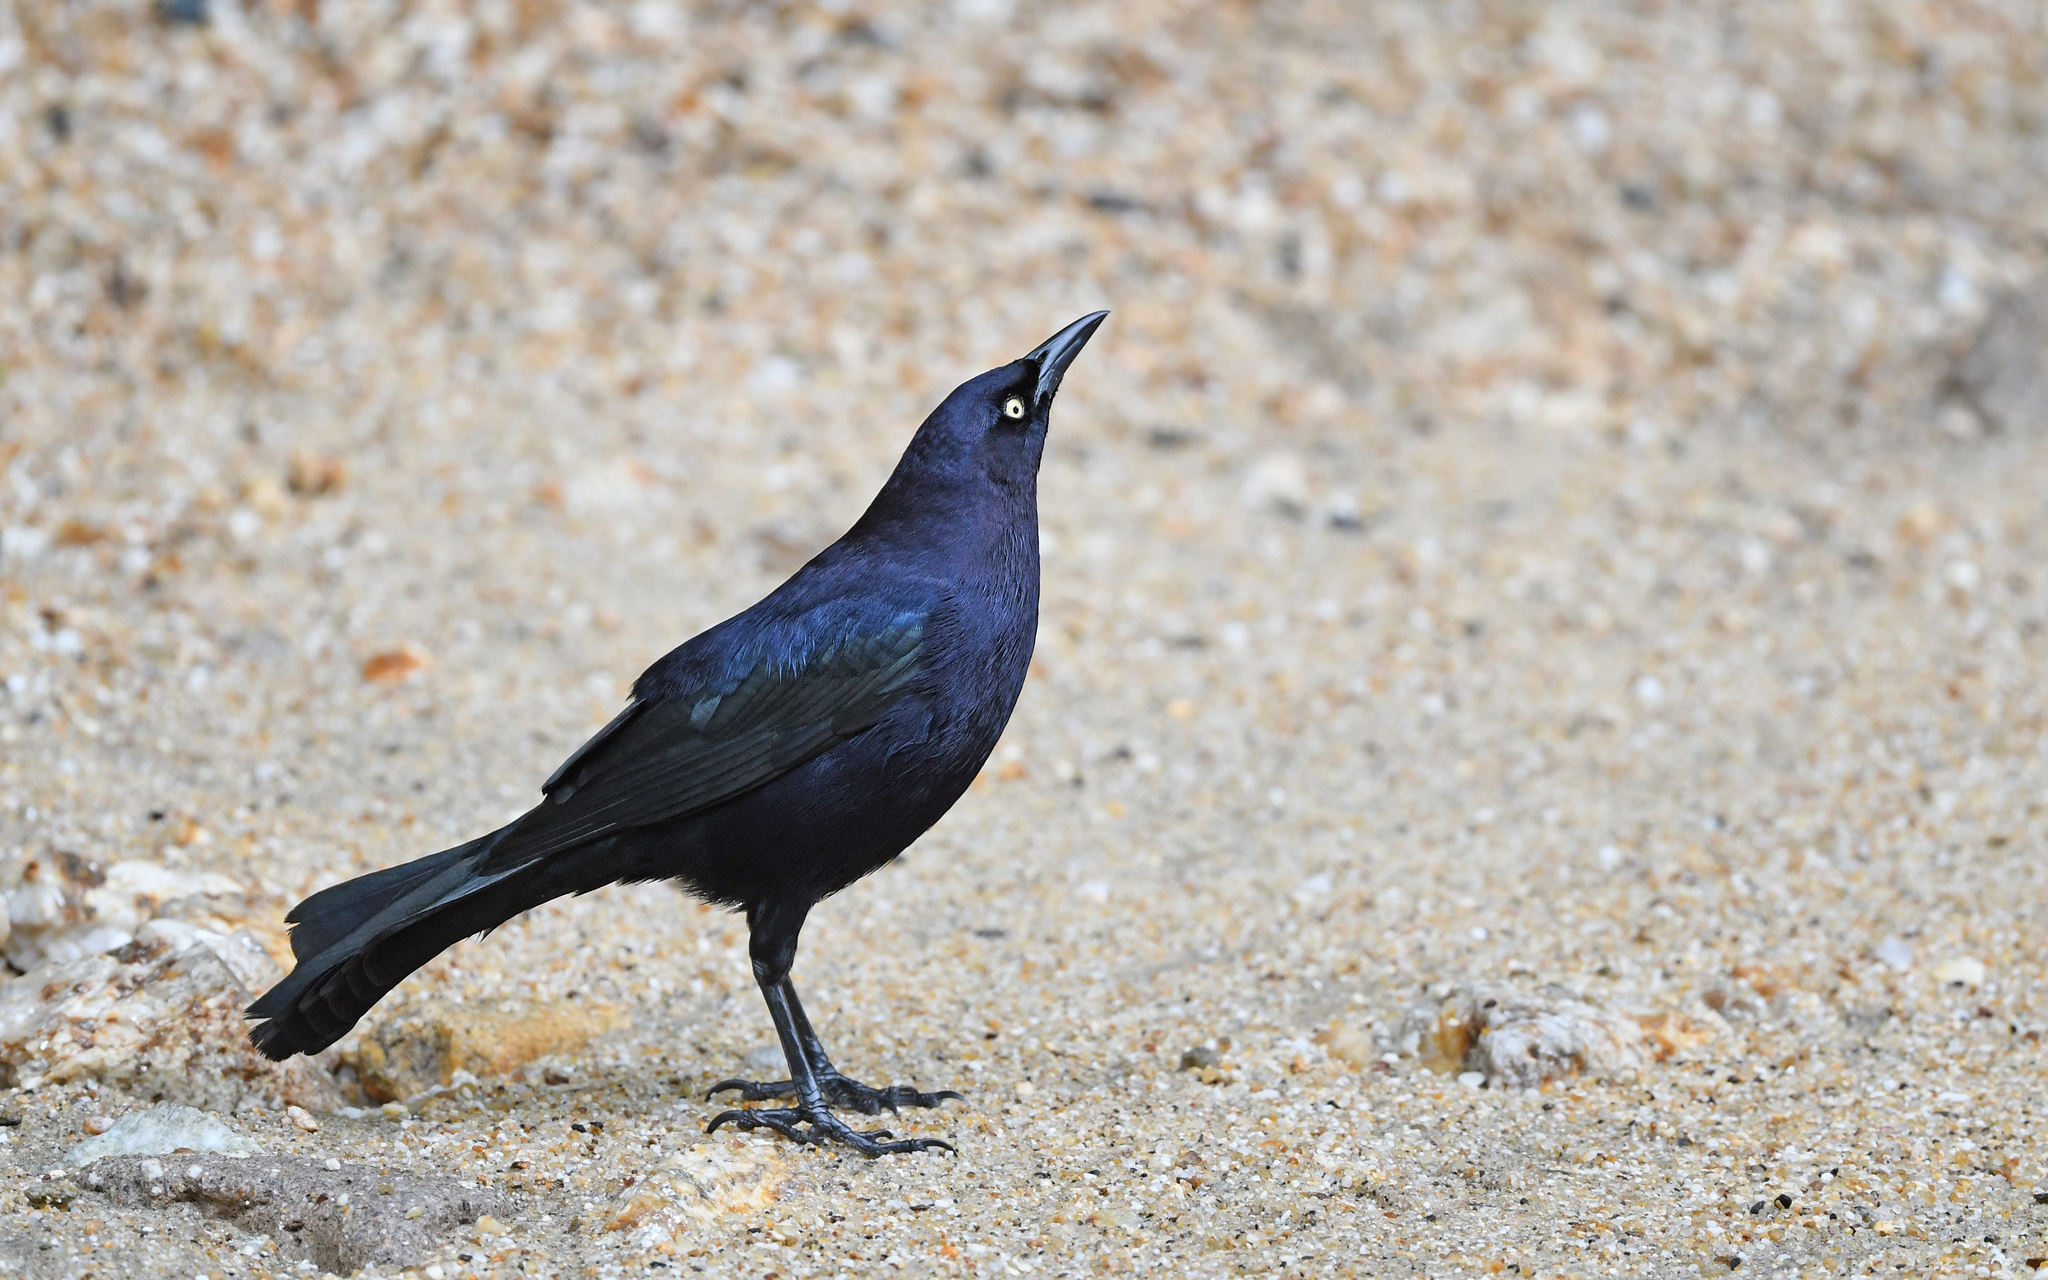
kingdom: Animalia
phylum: Chordata
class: Aves
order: Passeriformes
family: Icteridae
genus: Quiscalus
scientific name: Quiscalus lugubris
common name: Carib grackle
